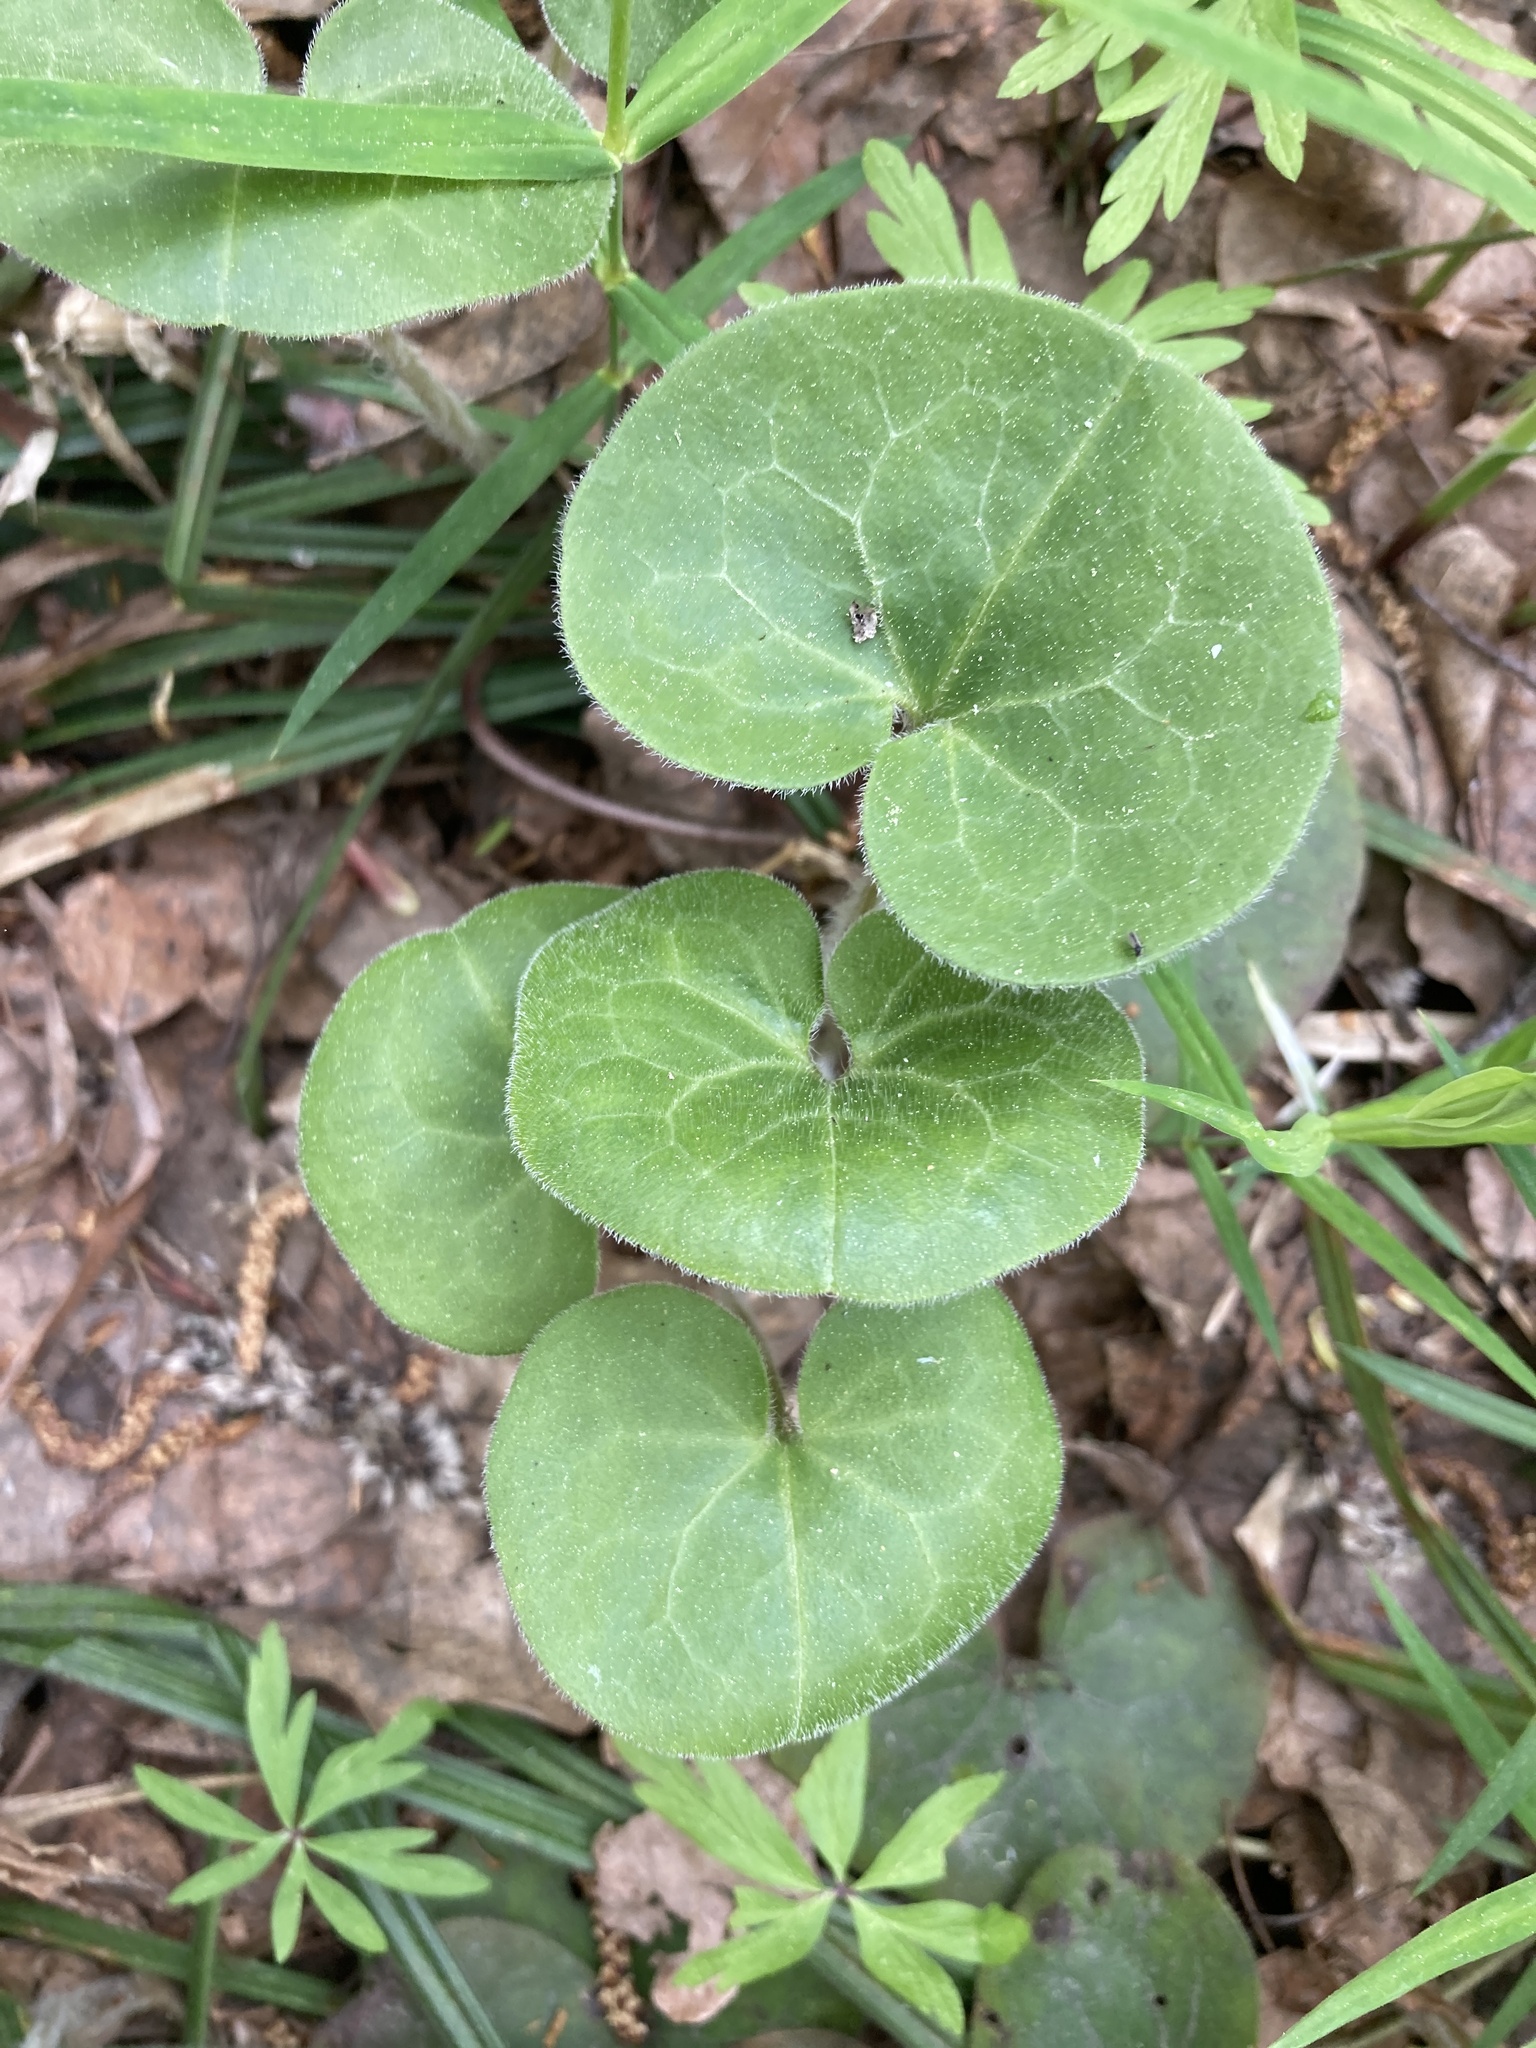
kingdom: Plantae
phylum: Tracheophyta
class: Magnoliopsida
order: Piperales
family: Aristolochiaceae
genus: Asarum
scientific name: Asarum europaeum
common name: Asarabacca
